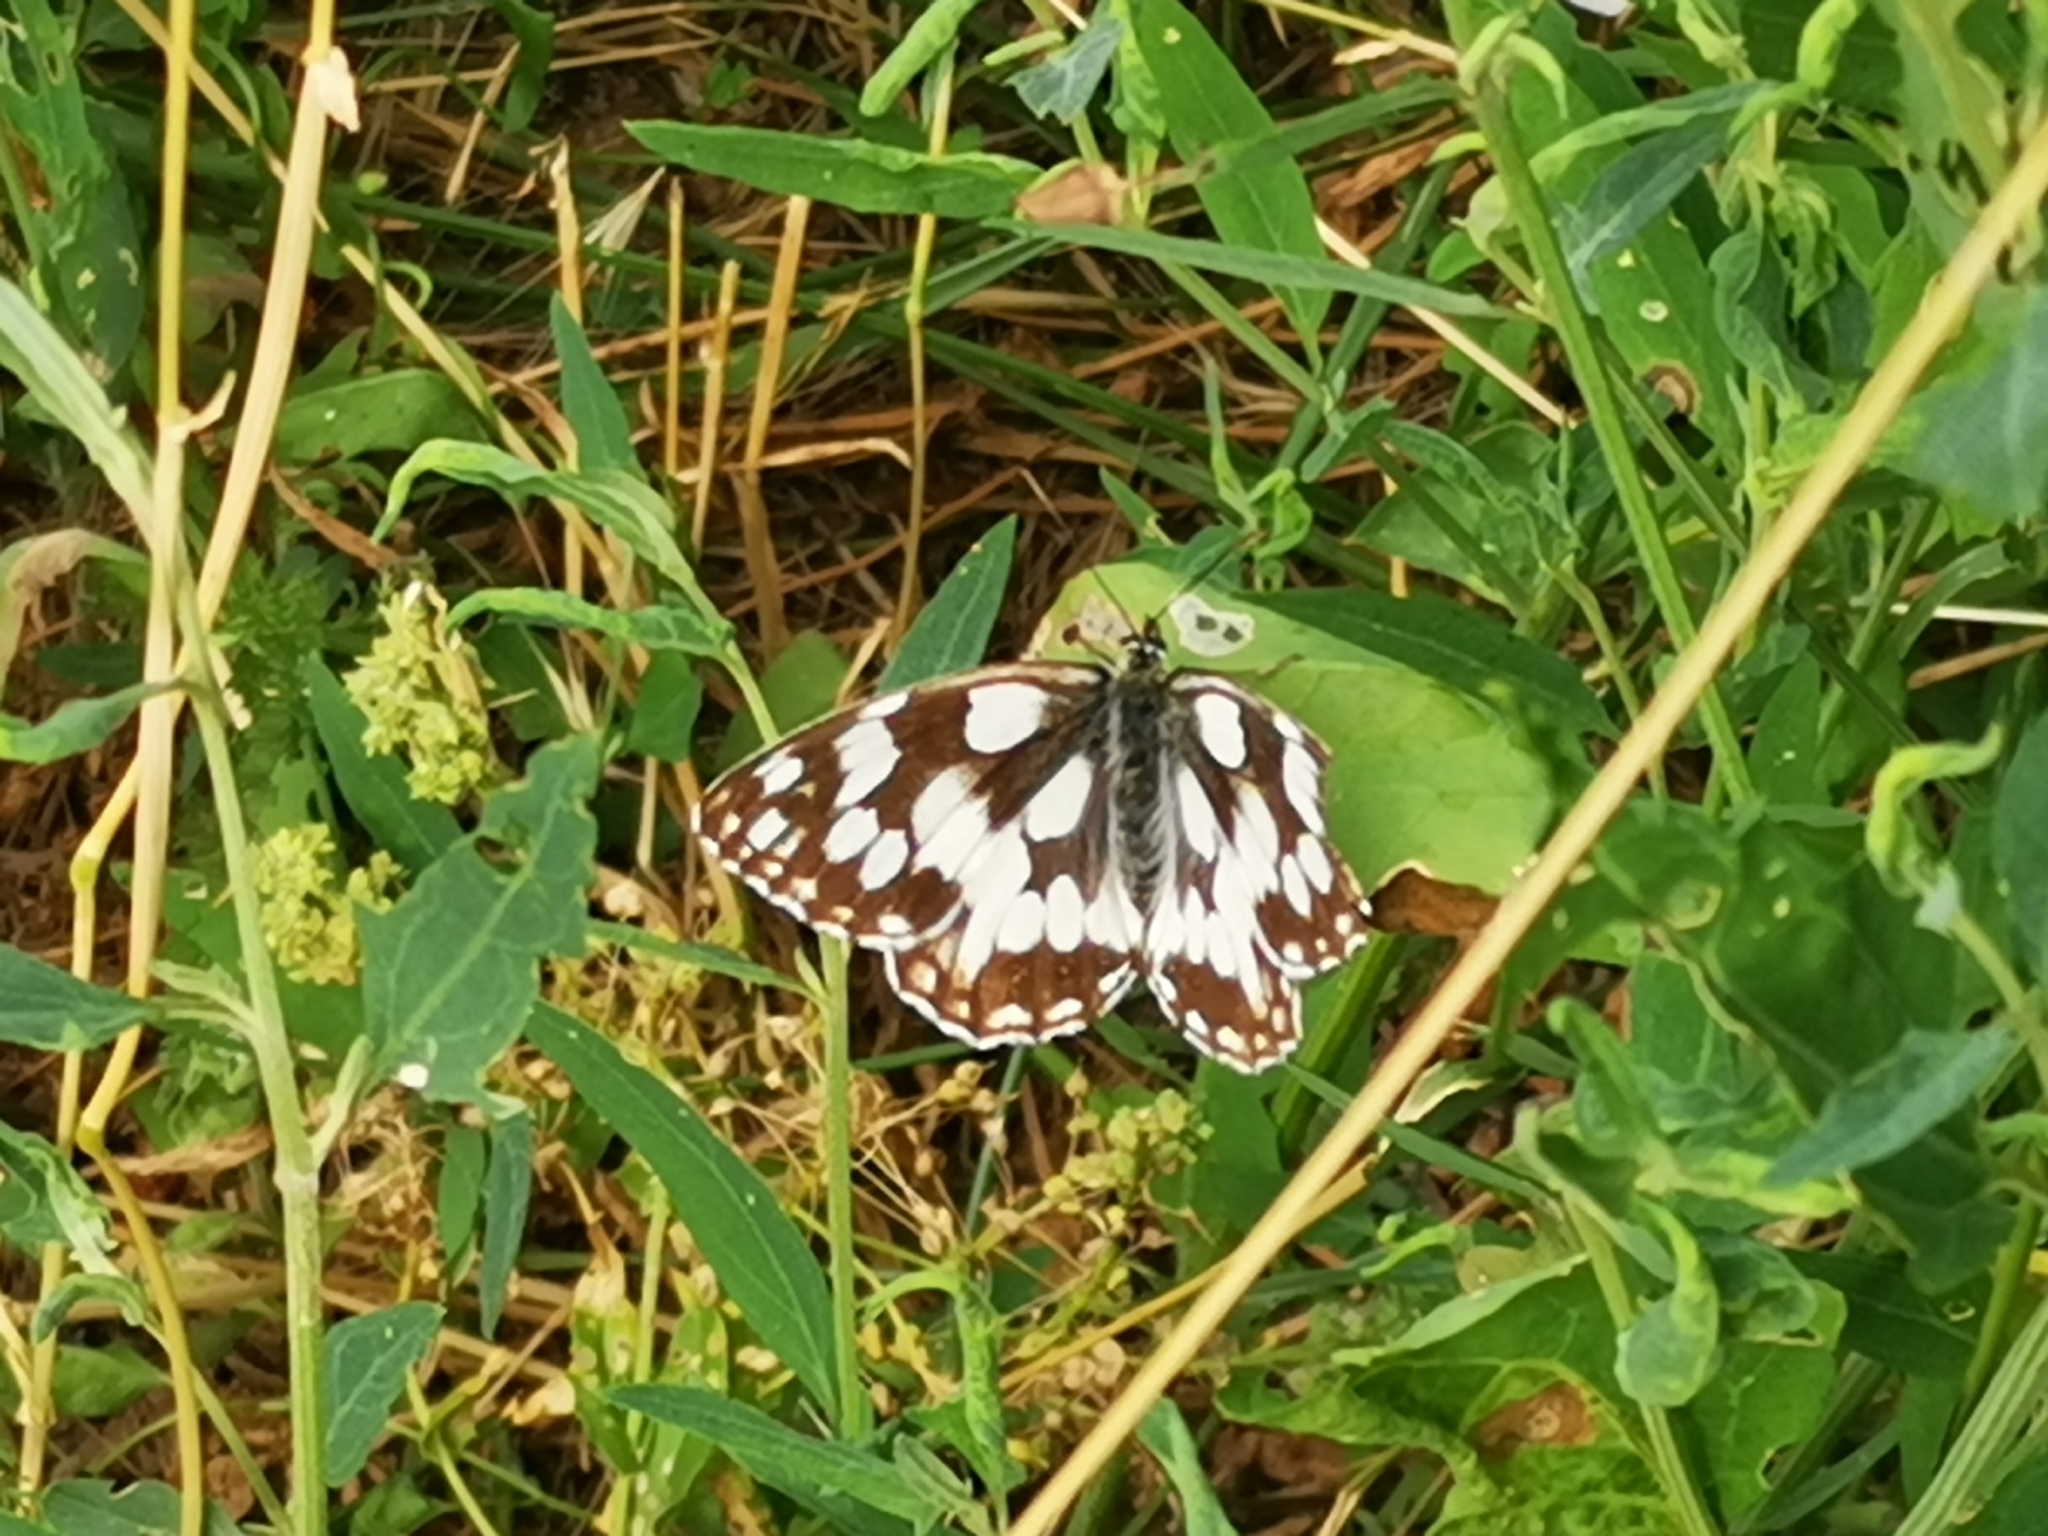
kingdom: Animalia
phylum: Arthropoda
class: Insecta
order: Lepidoptera
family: Nymphalidae
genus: Melanargia
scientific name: Melanargia galathea
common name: Marbled white
